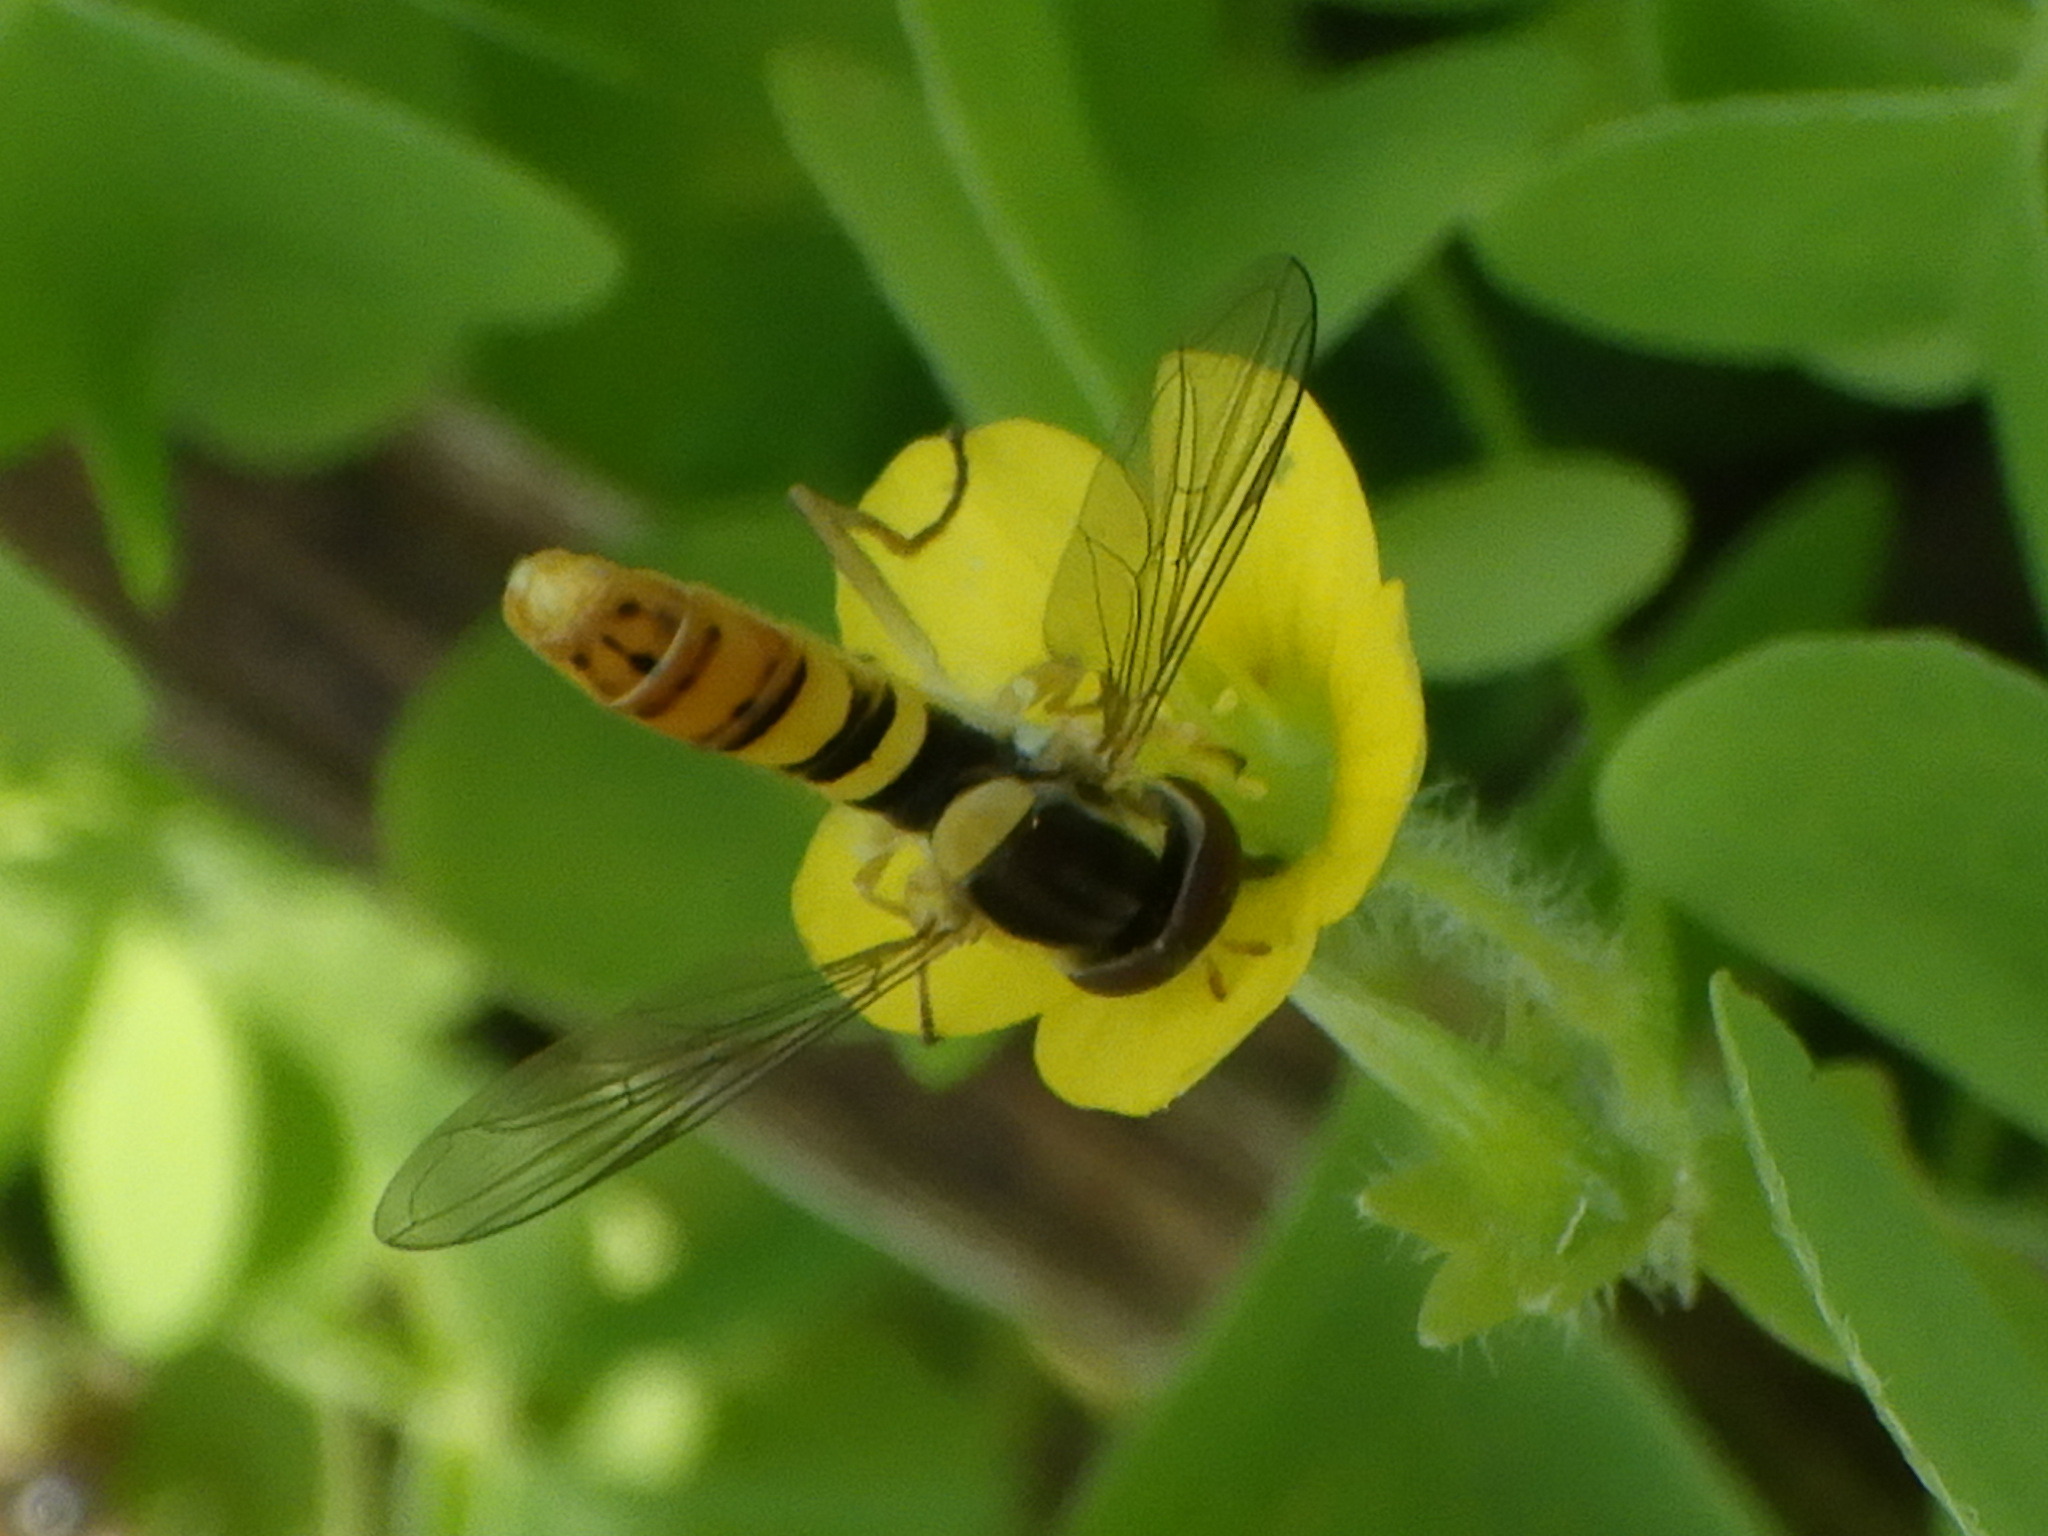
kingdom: Animalia
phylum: Arthropoda
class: Insecta
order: Diptera
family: Syrphidae
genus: Sphaerophoria
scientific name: Sphaerophoria
